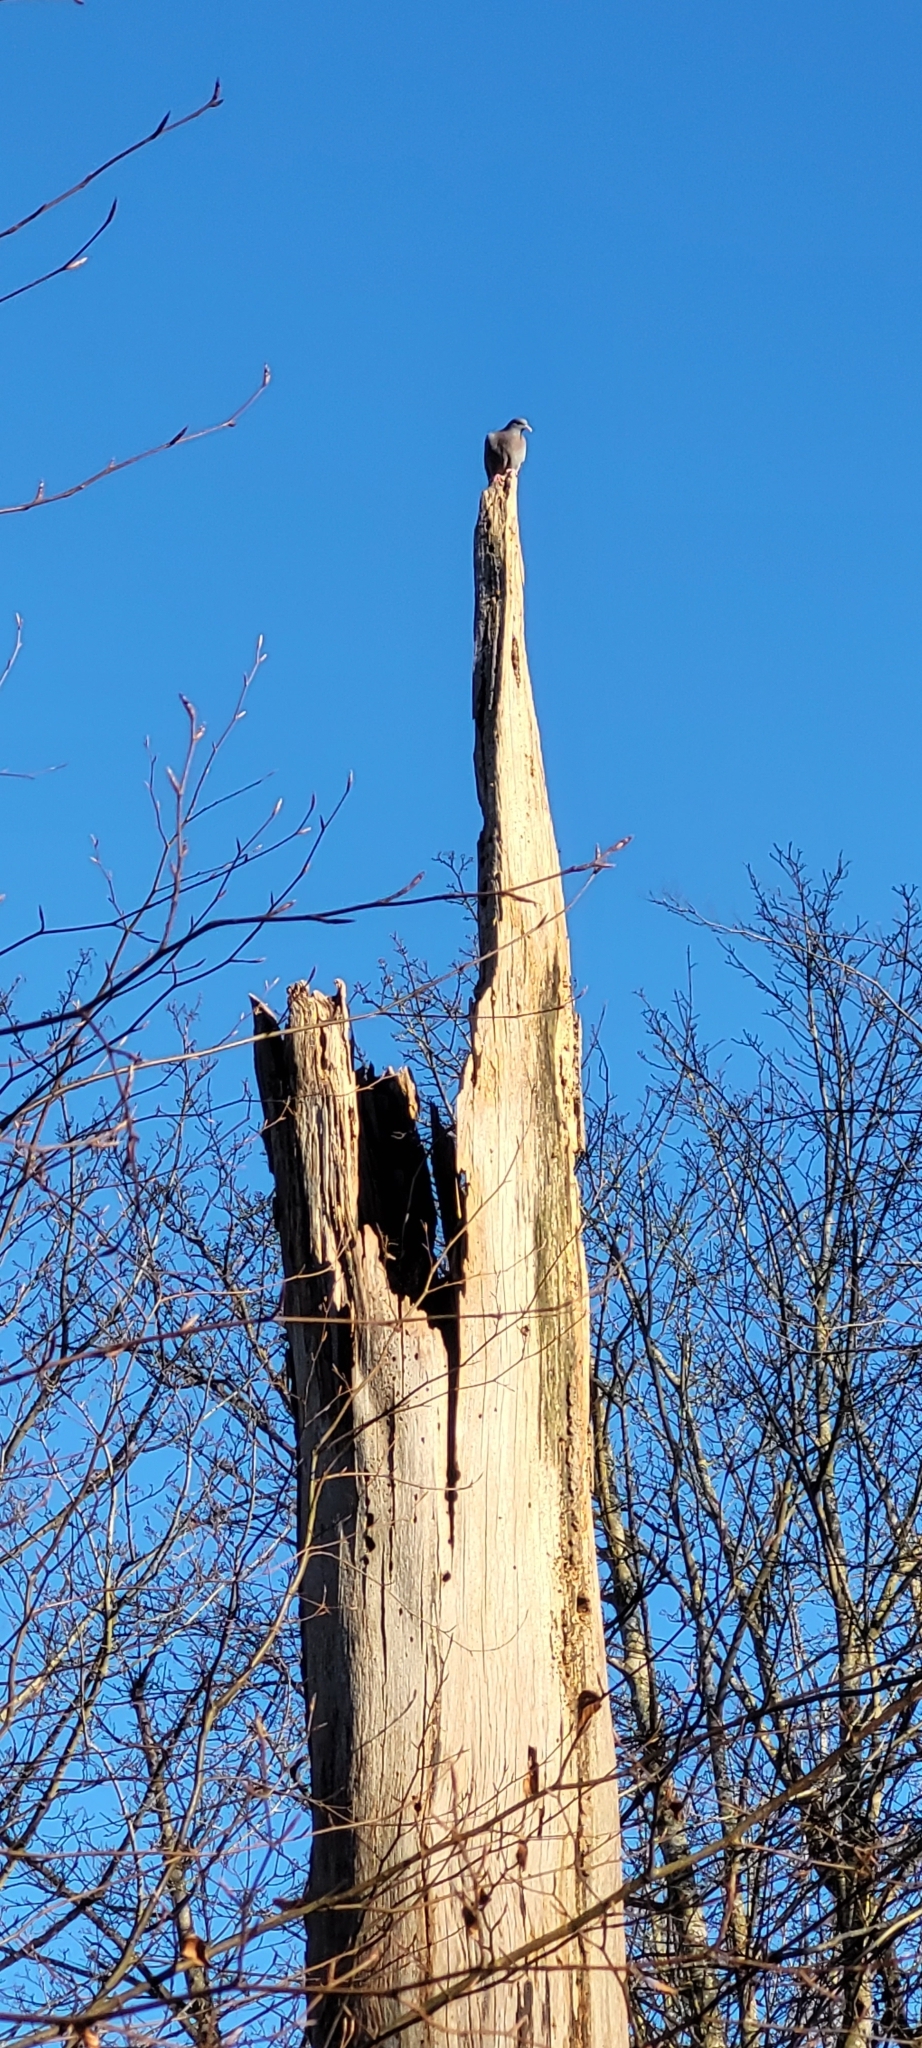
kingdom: Animalia
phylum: Chordata
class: Aves
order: Columbiformes
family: Columbidae
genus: Columba
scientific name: Columba oenas
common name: Stock dove
